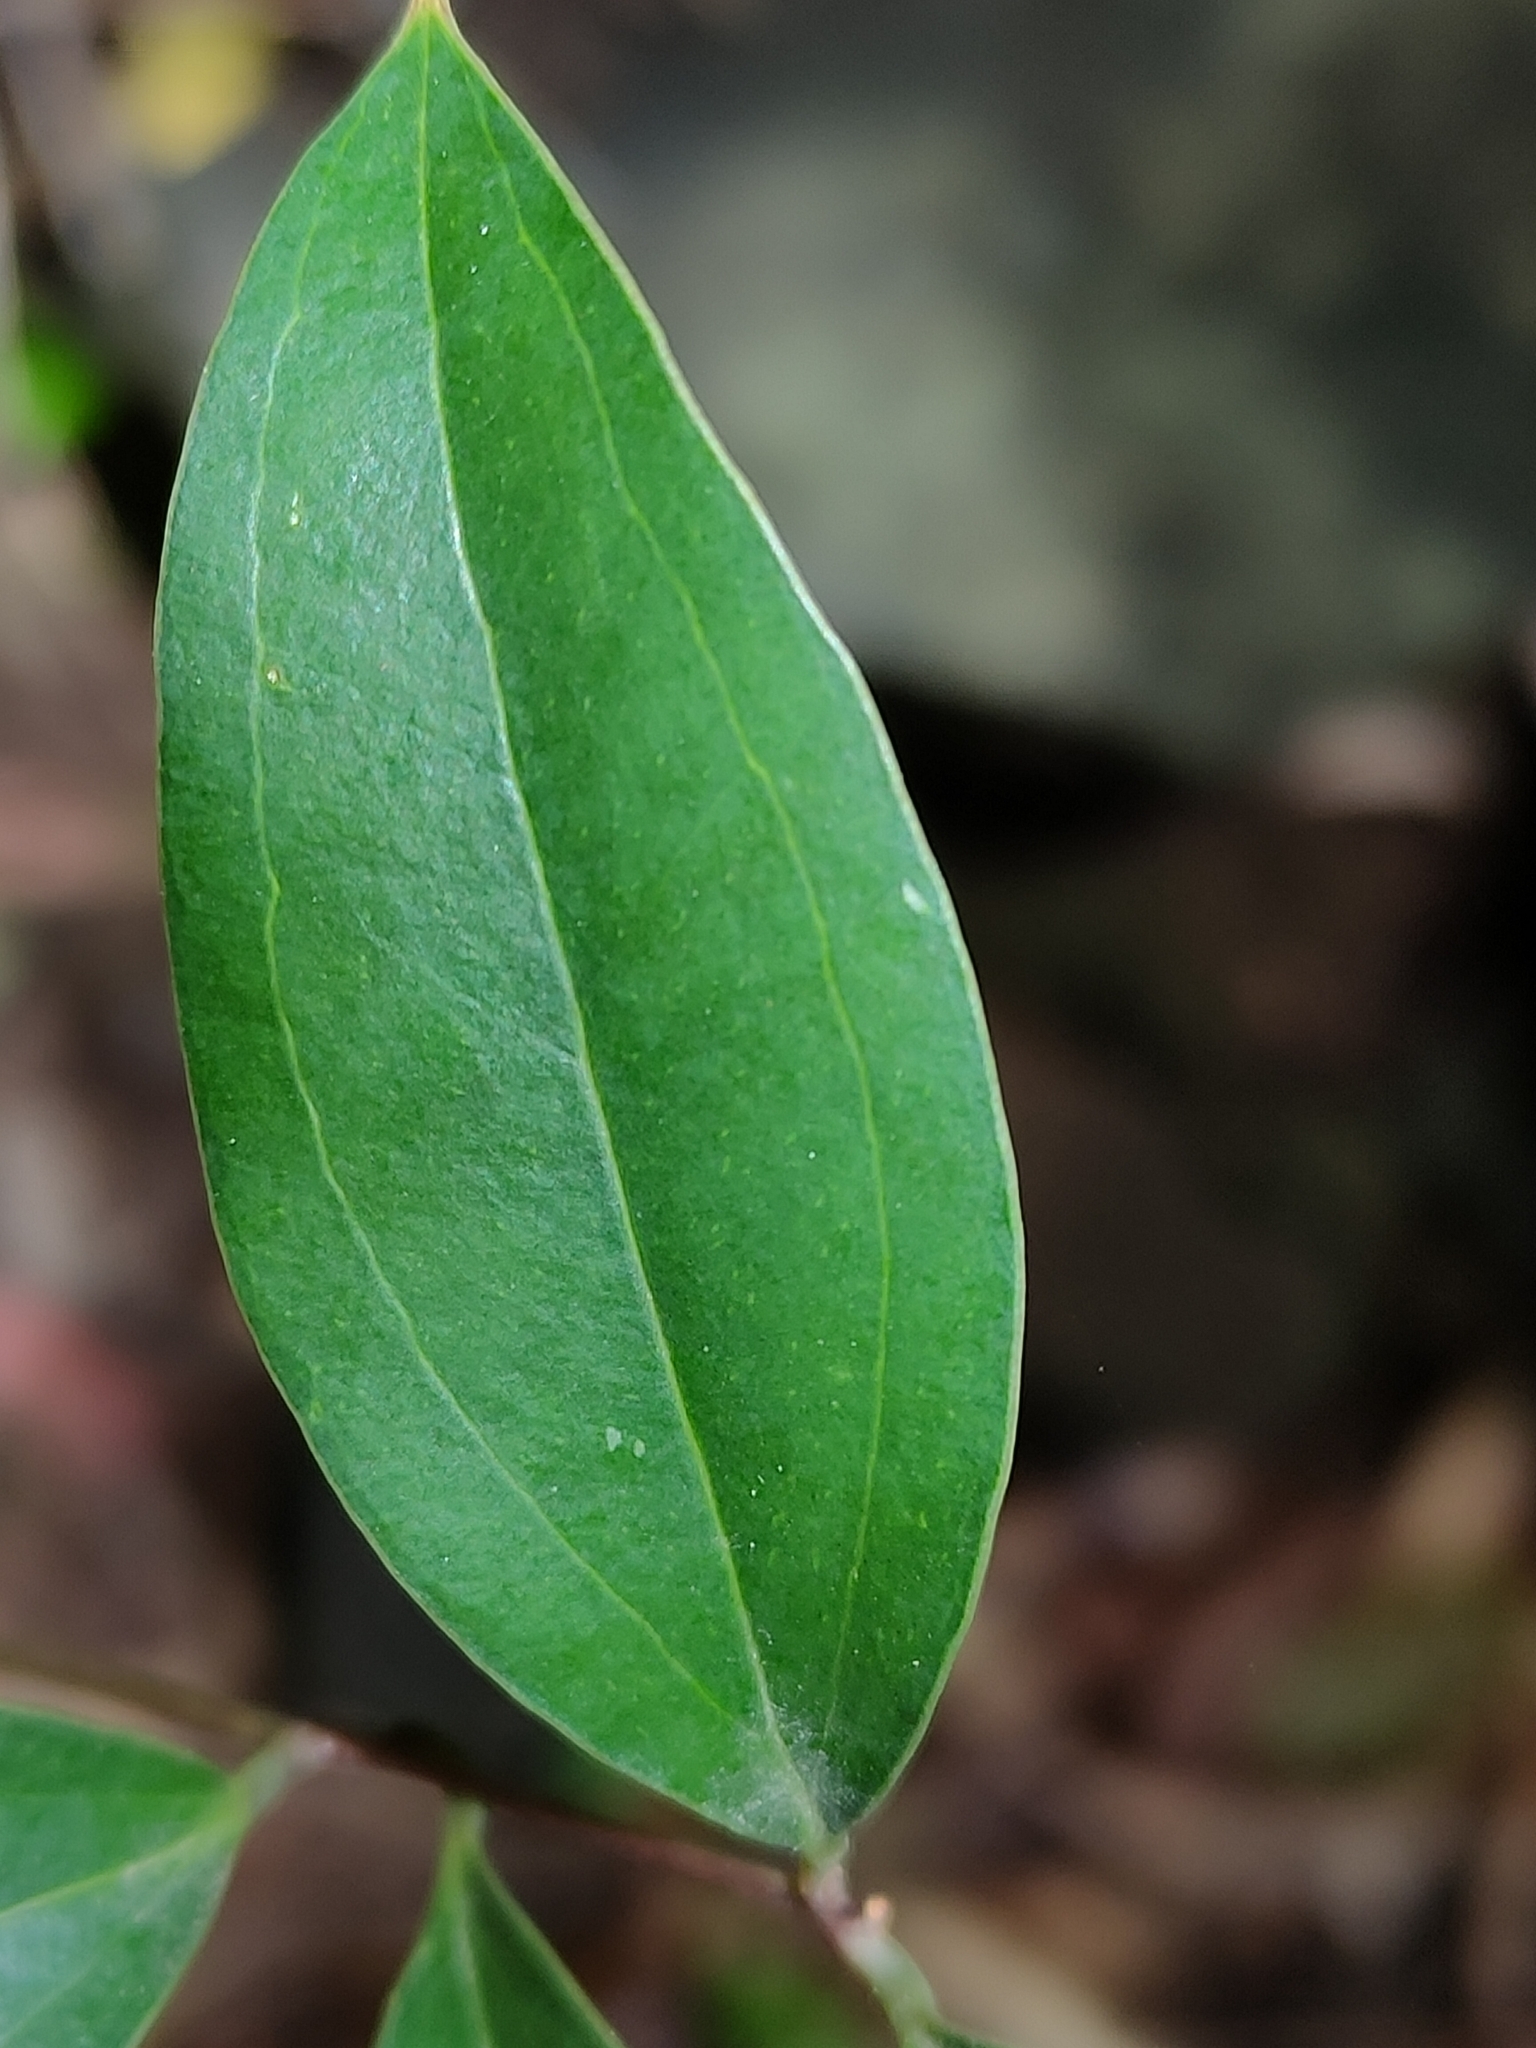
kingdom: Plantae
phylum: Tracheophyta
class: Liliopsida
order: Liliales
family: Ripogonaceae
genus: Ripogonum
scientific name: Ripogonum brevifolium
